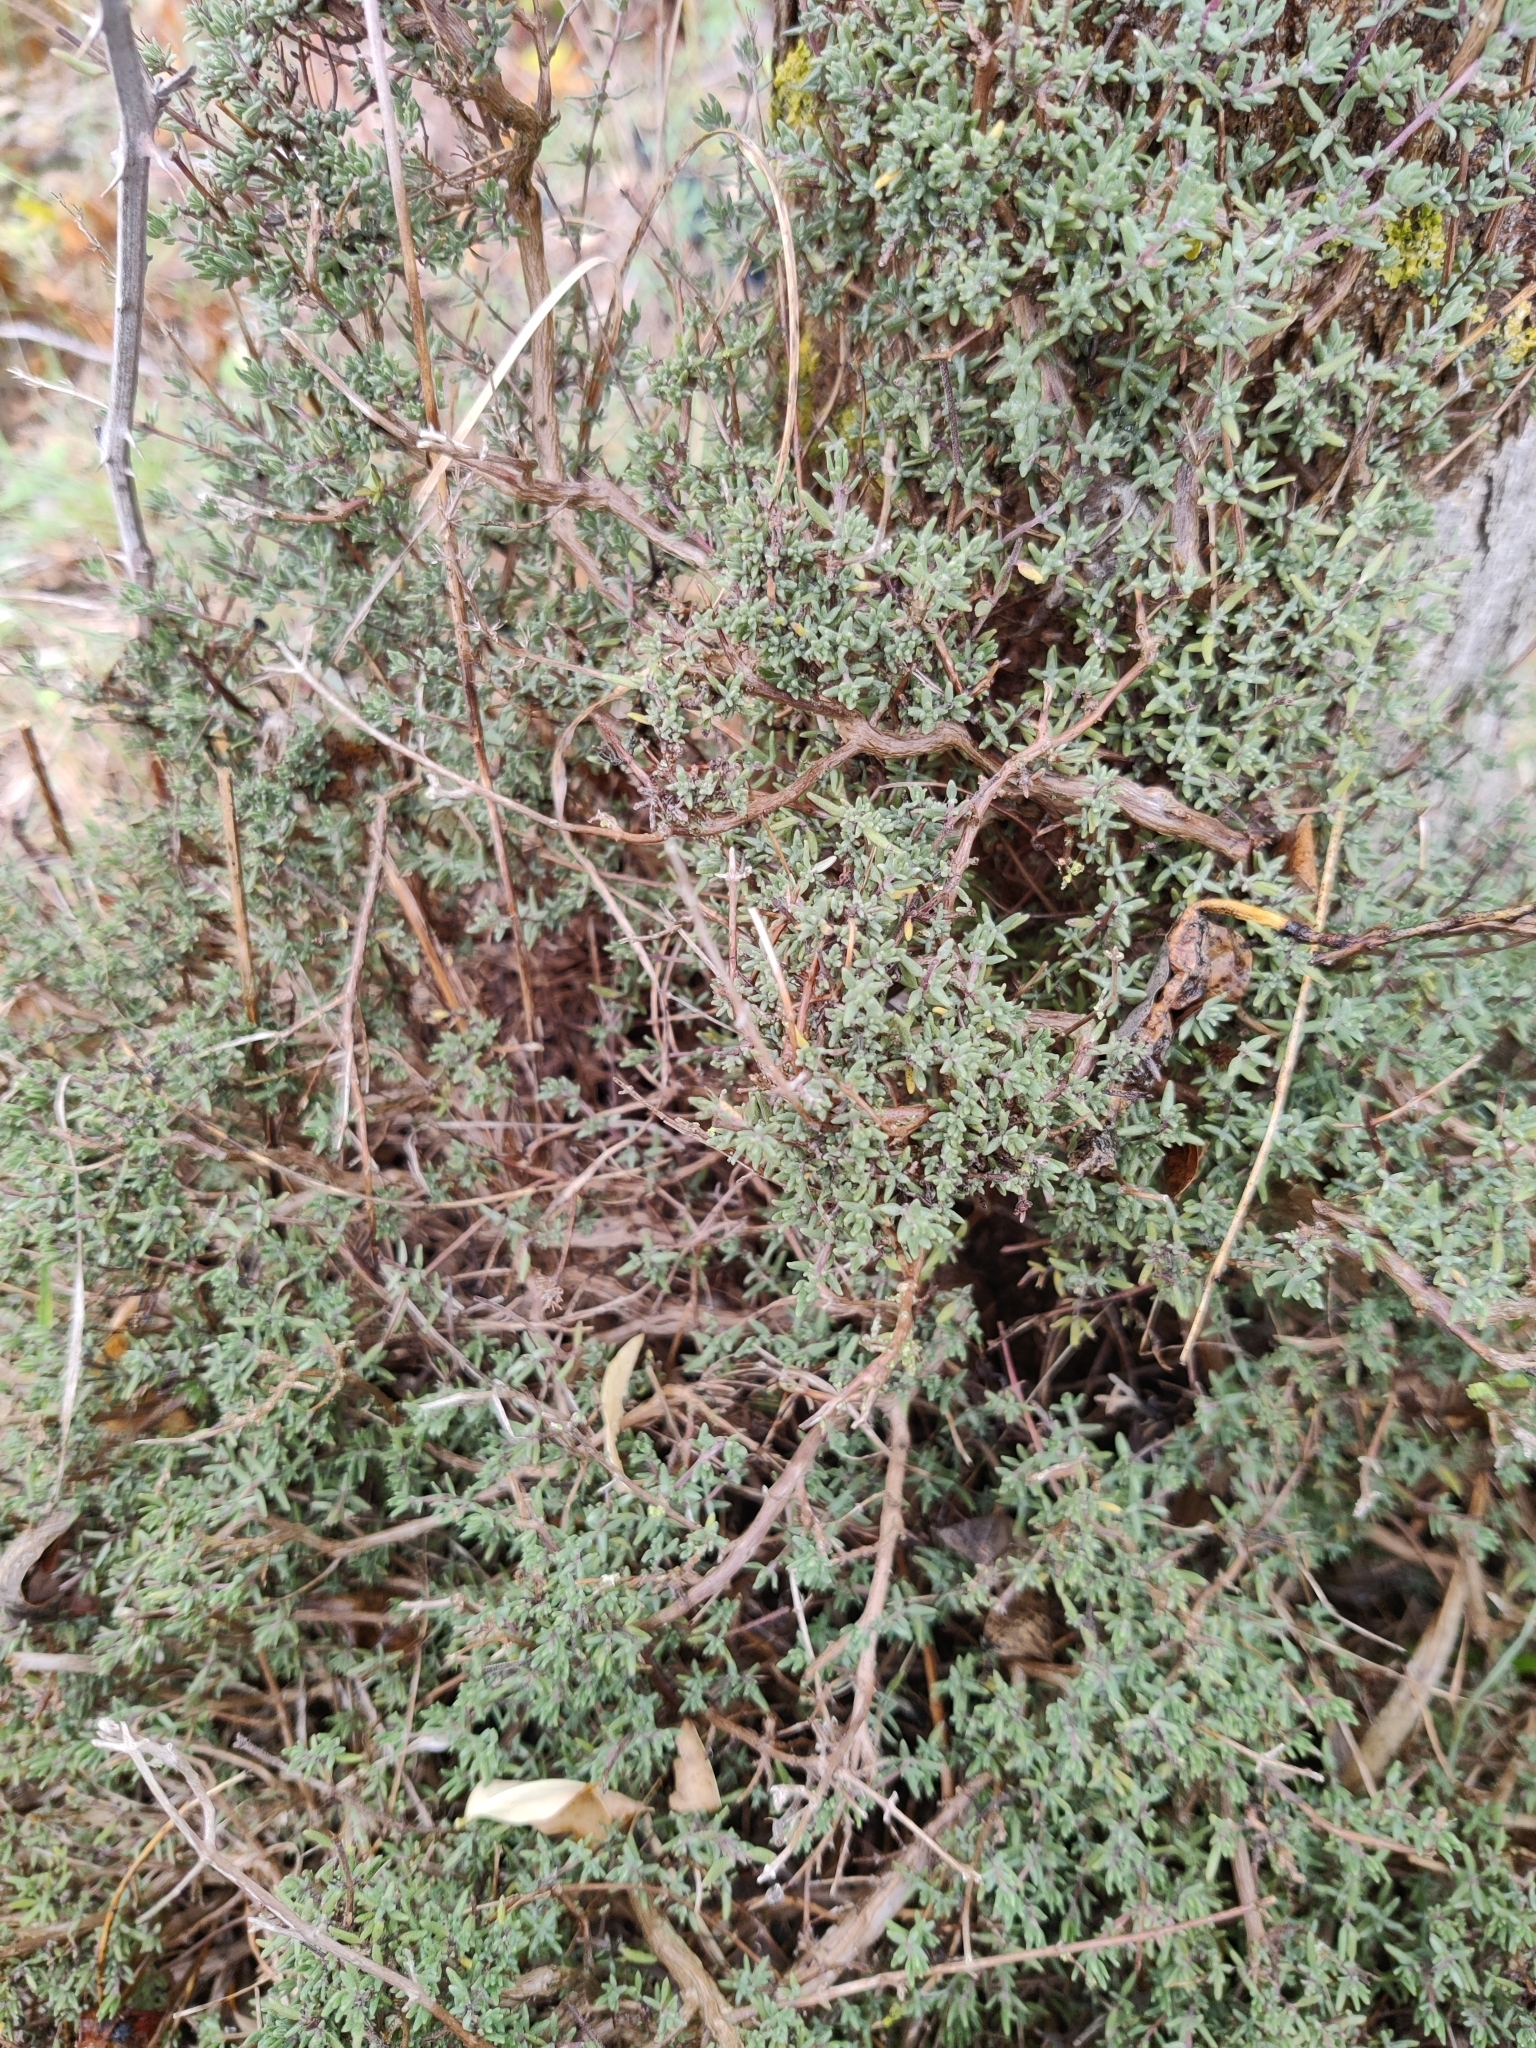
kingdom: Plantae
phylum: Tracheophyta
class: Magnoliopsida
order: Lamiales
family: Lamiaceae
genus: Thymus
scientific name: Thymus vulgaris
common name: Garden thyme
